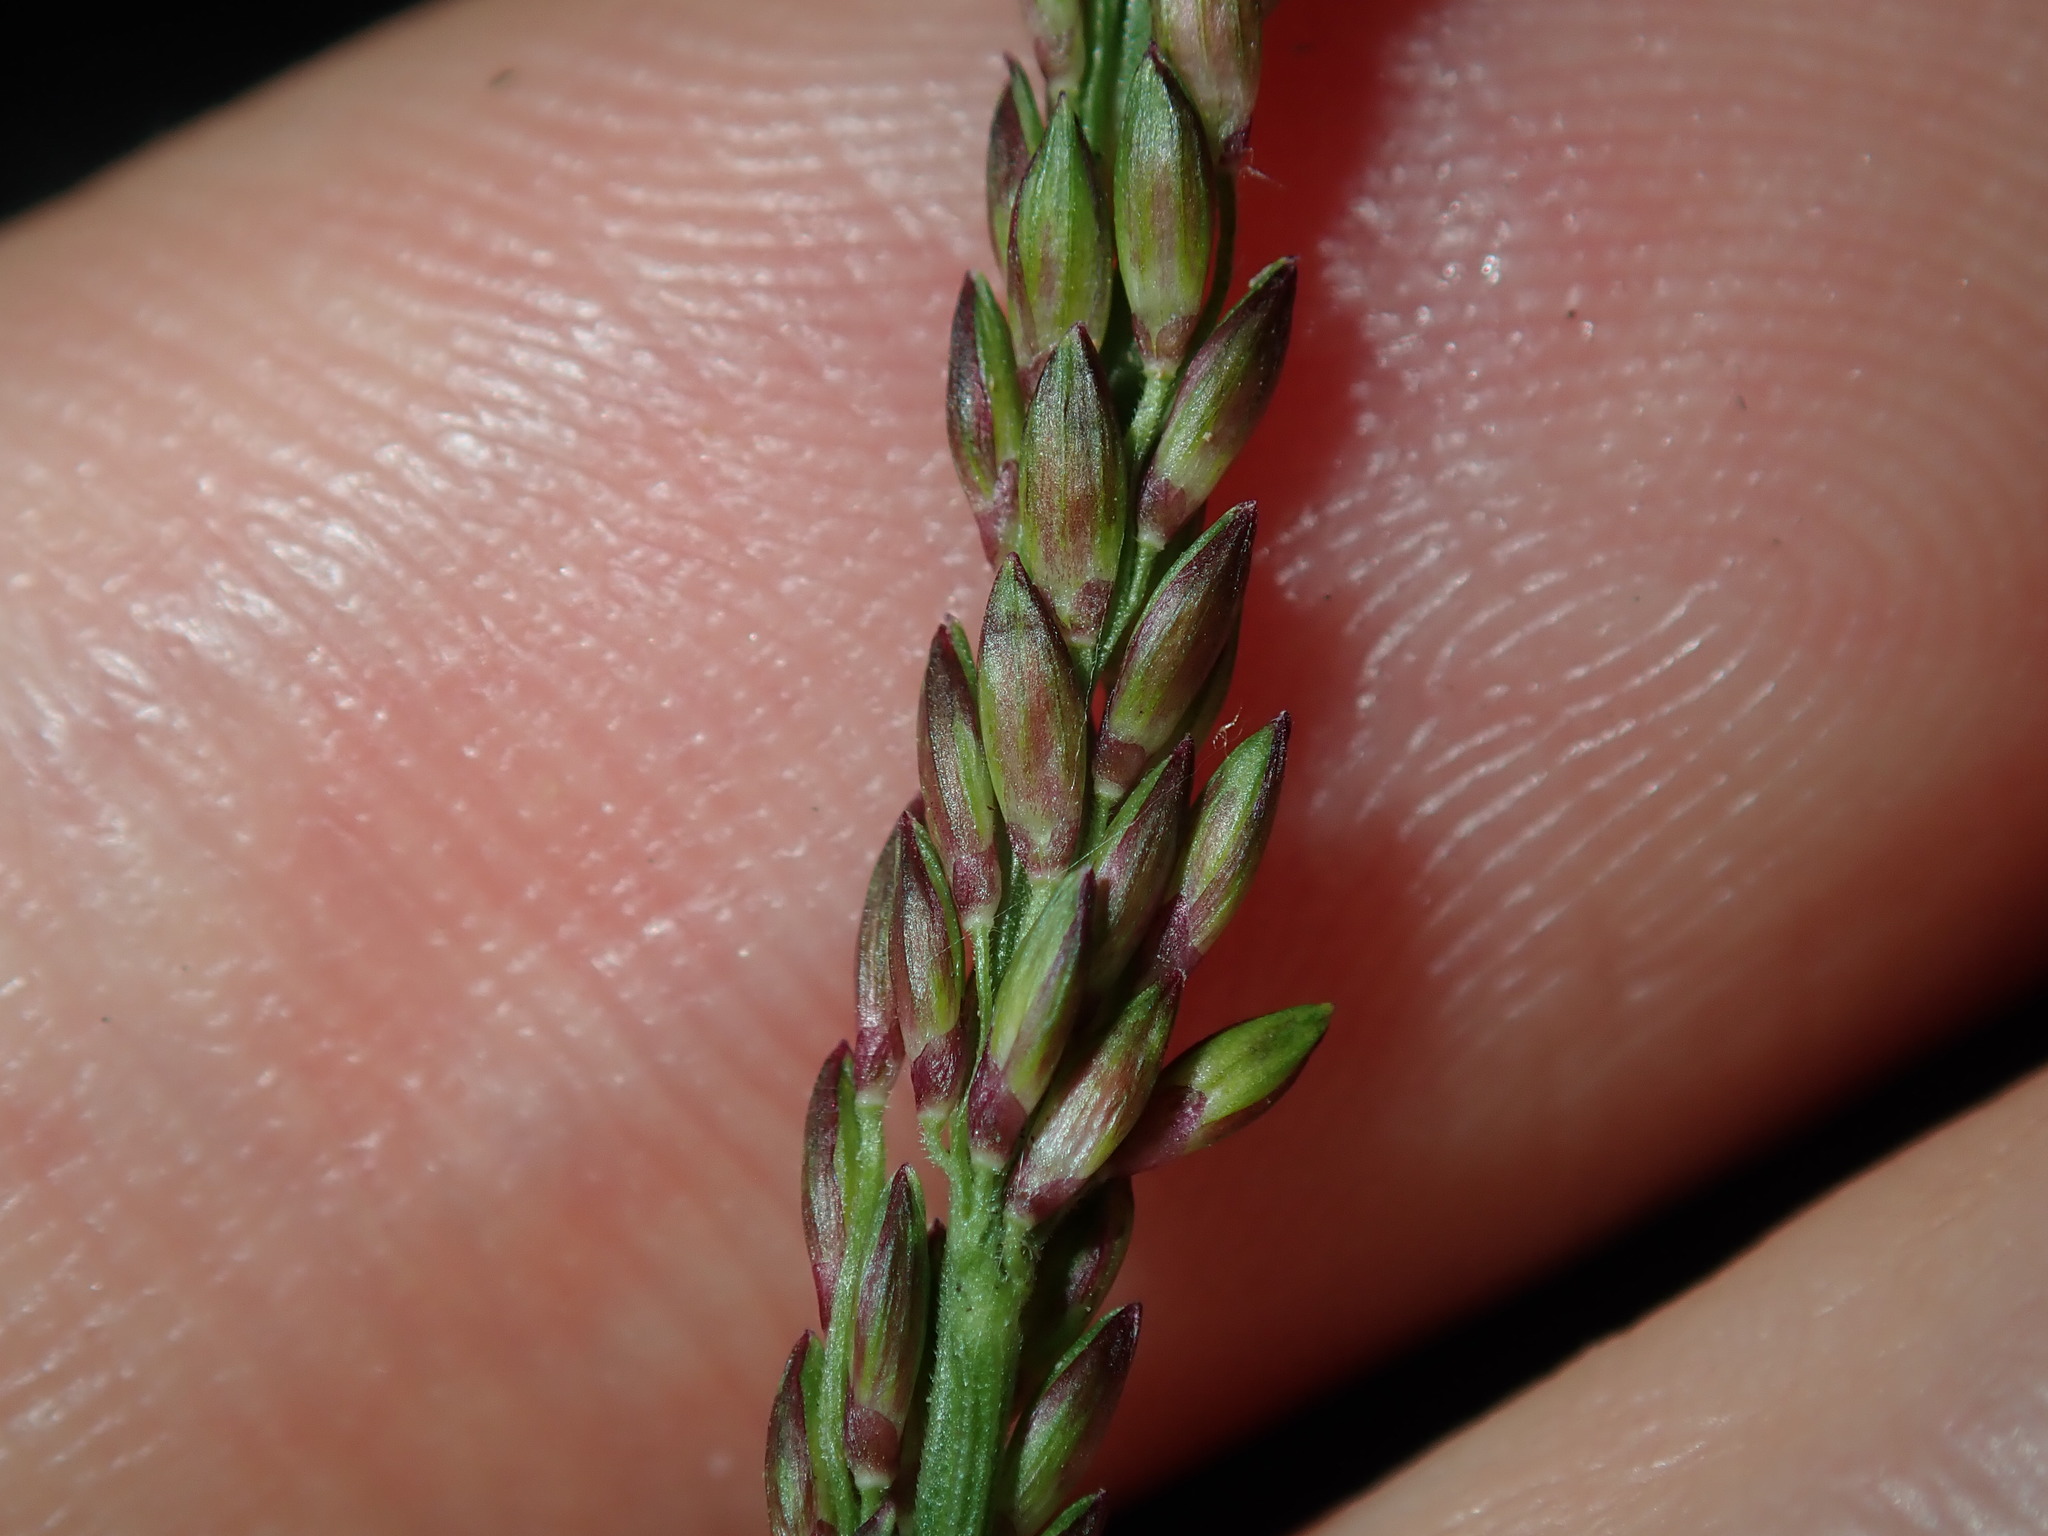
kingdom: Plantae
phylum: Tracheophyta
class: Liliopsida
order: Poales
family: Poaceae
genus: Entolasia
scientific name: Entolasia stricta
